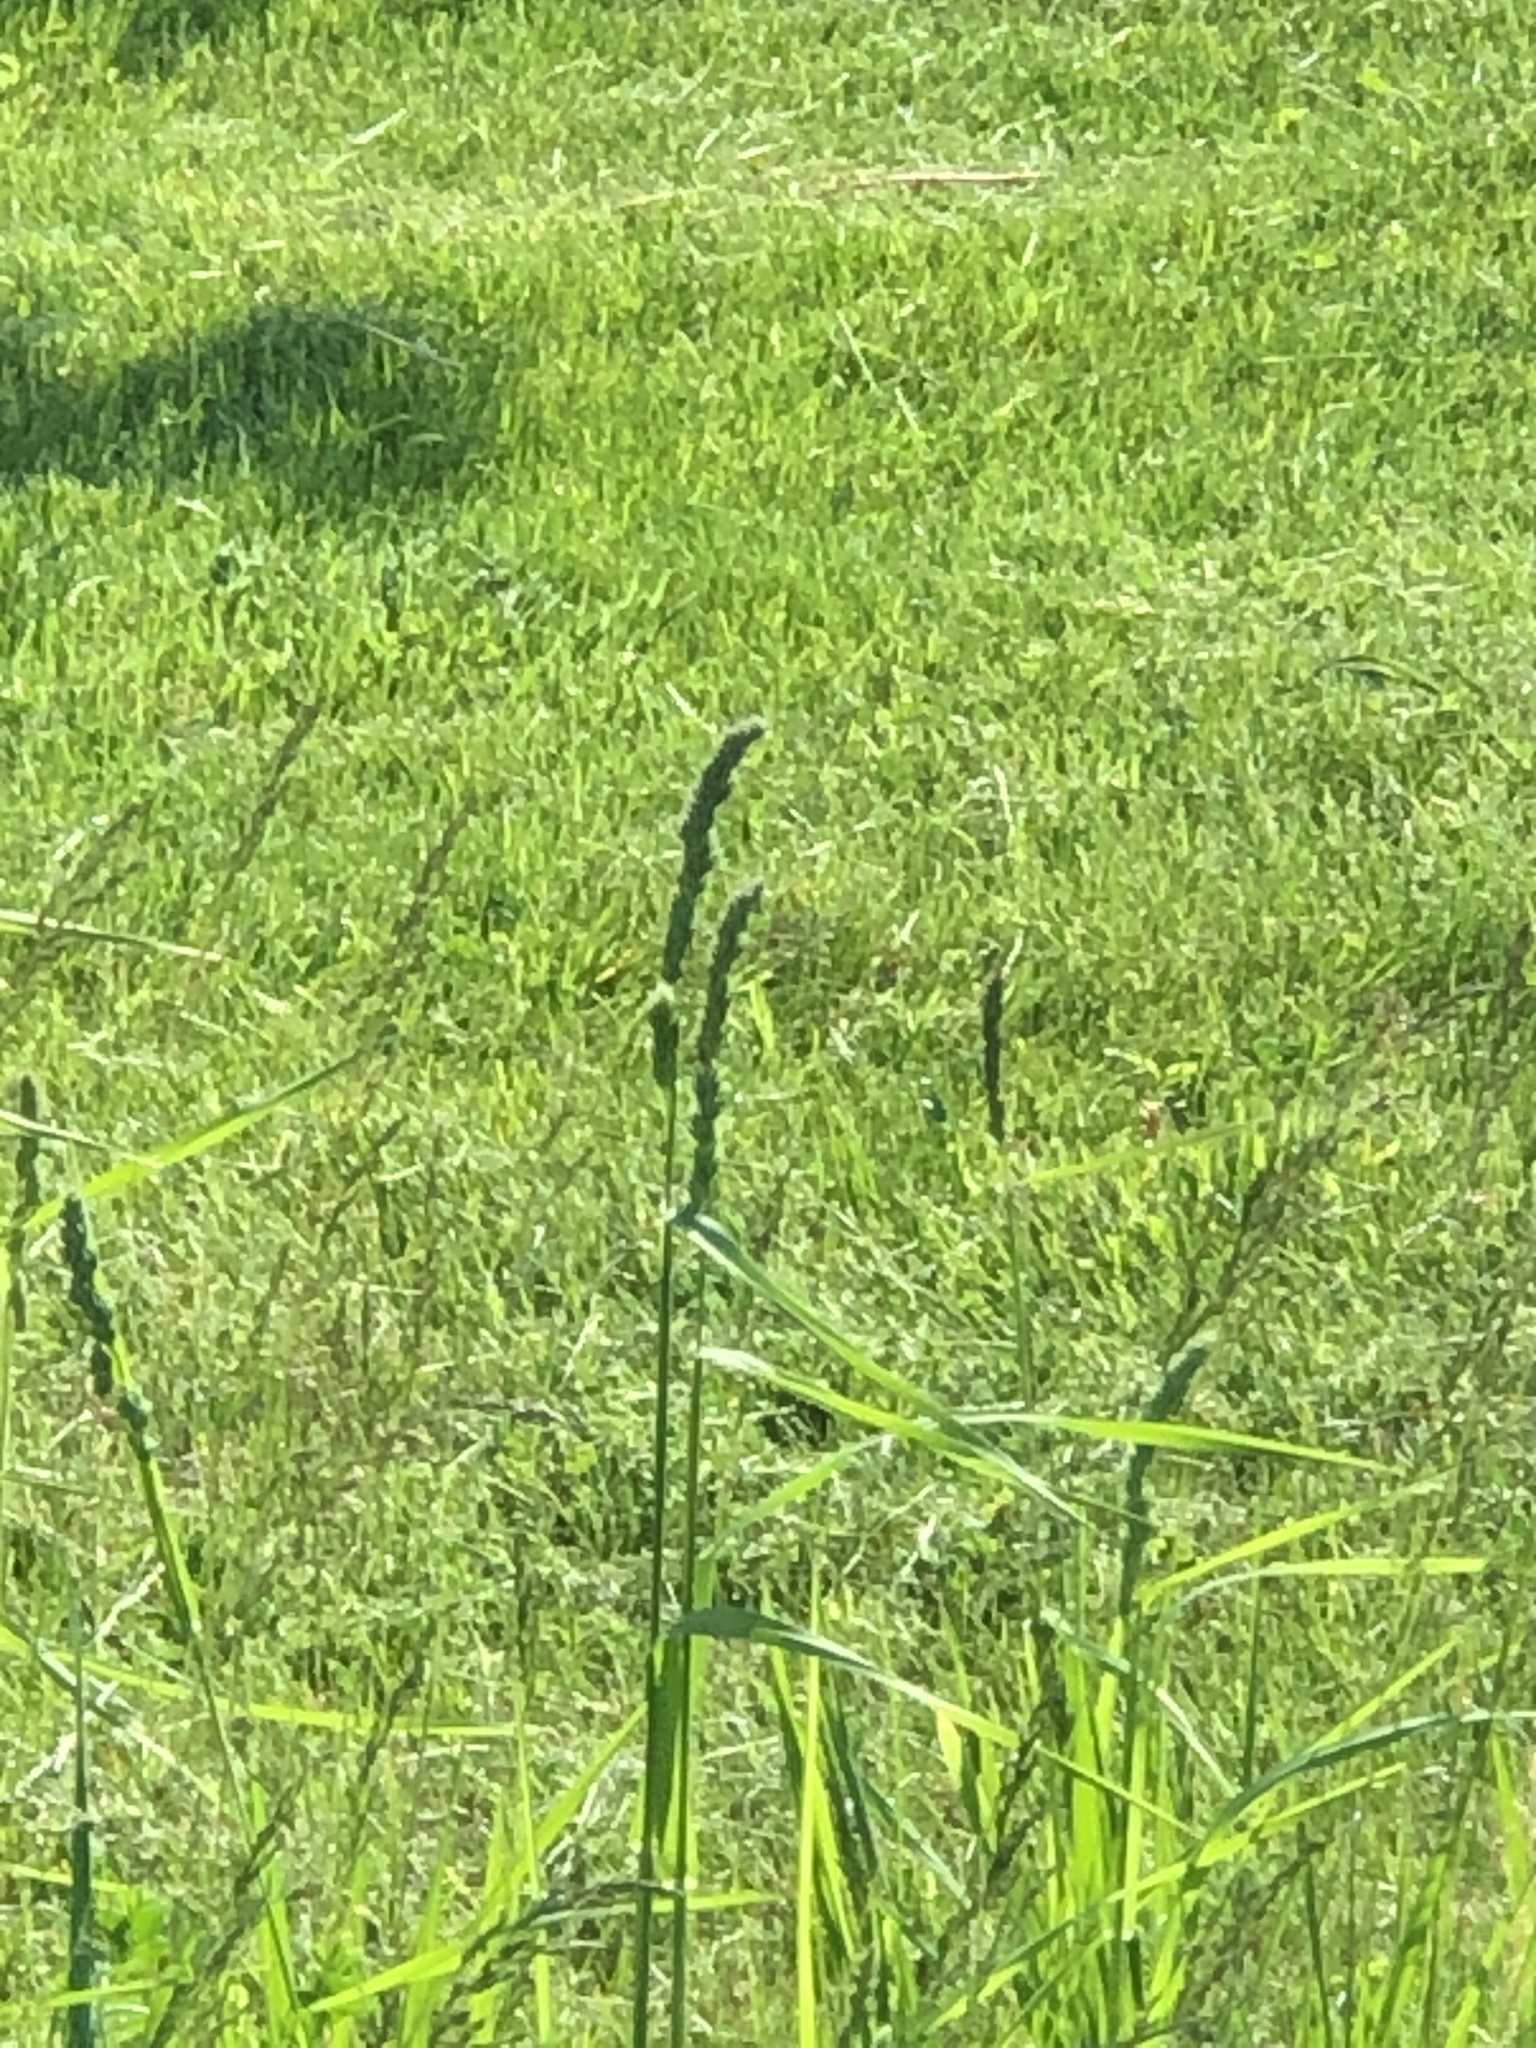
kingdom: Plantae
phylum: Tracheophyta
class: Liliopsida
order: Poales
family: Poaceae
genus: Dactylis
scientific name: Dactylis glomerata
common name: Orchardgrass
